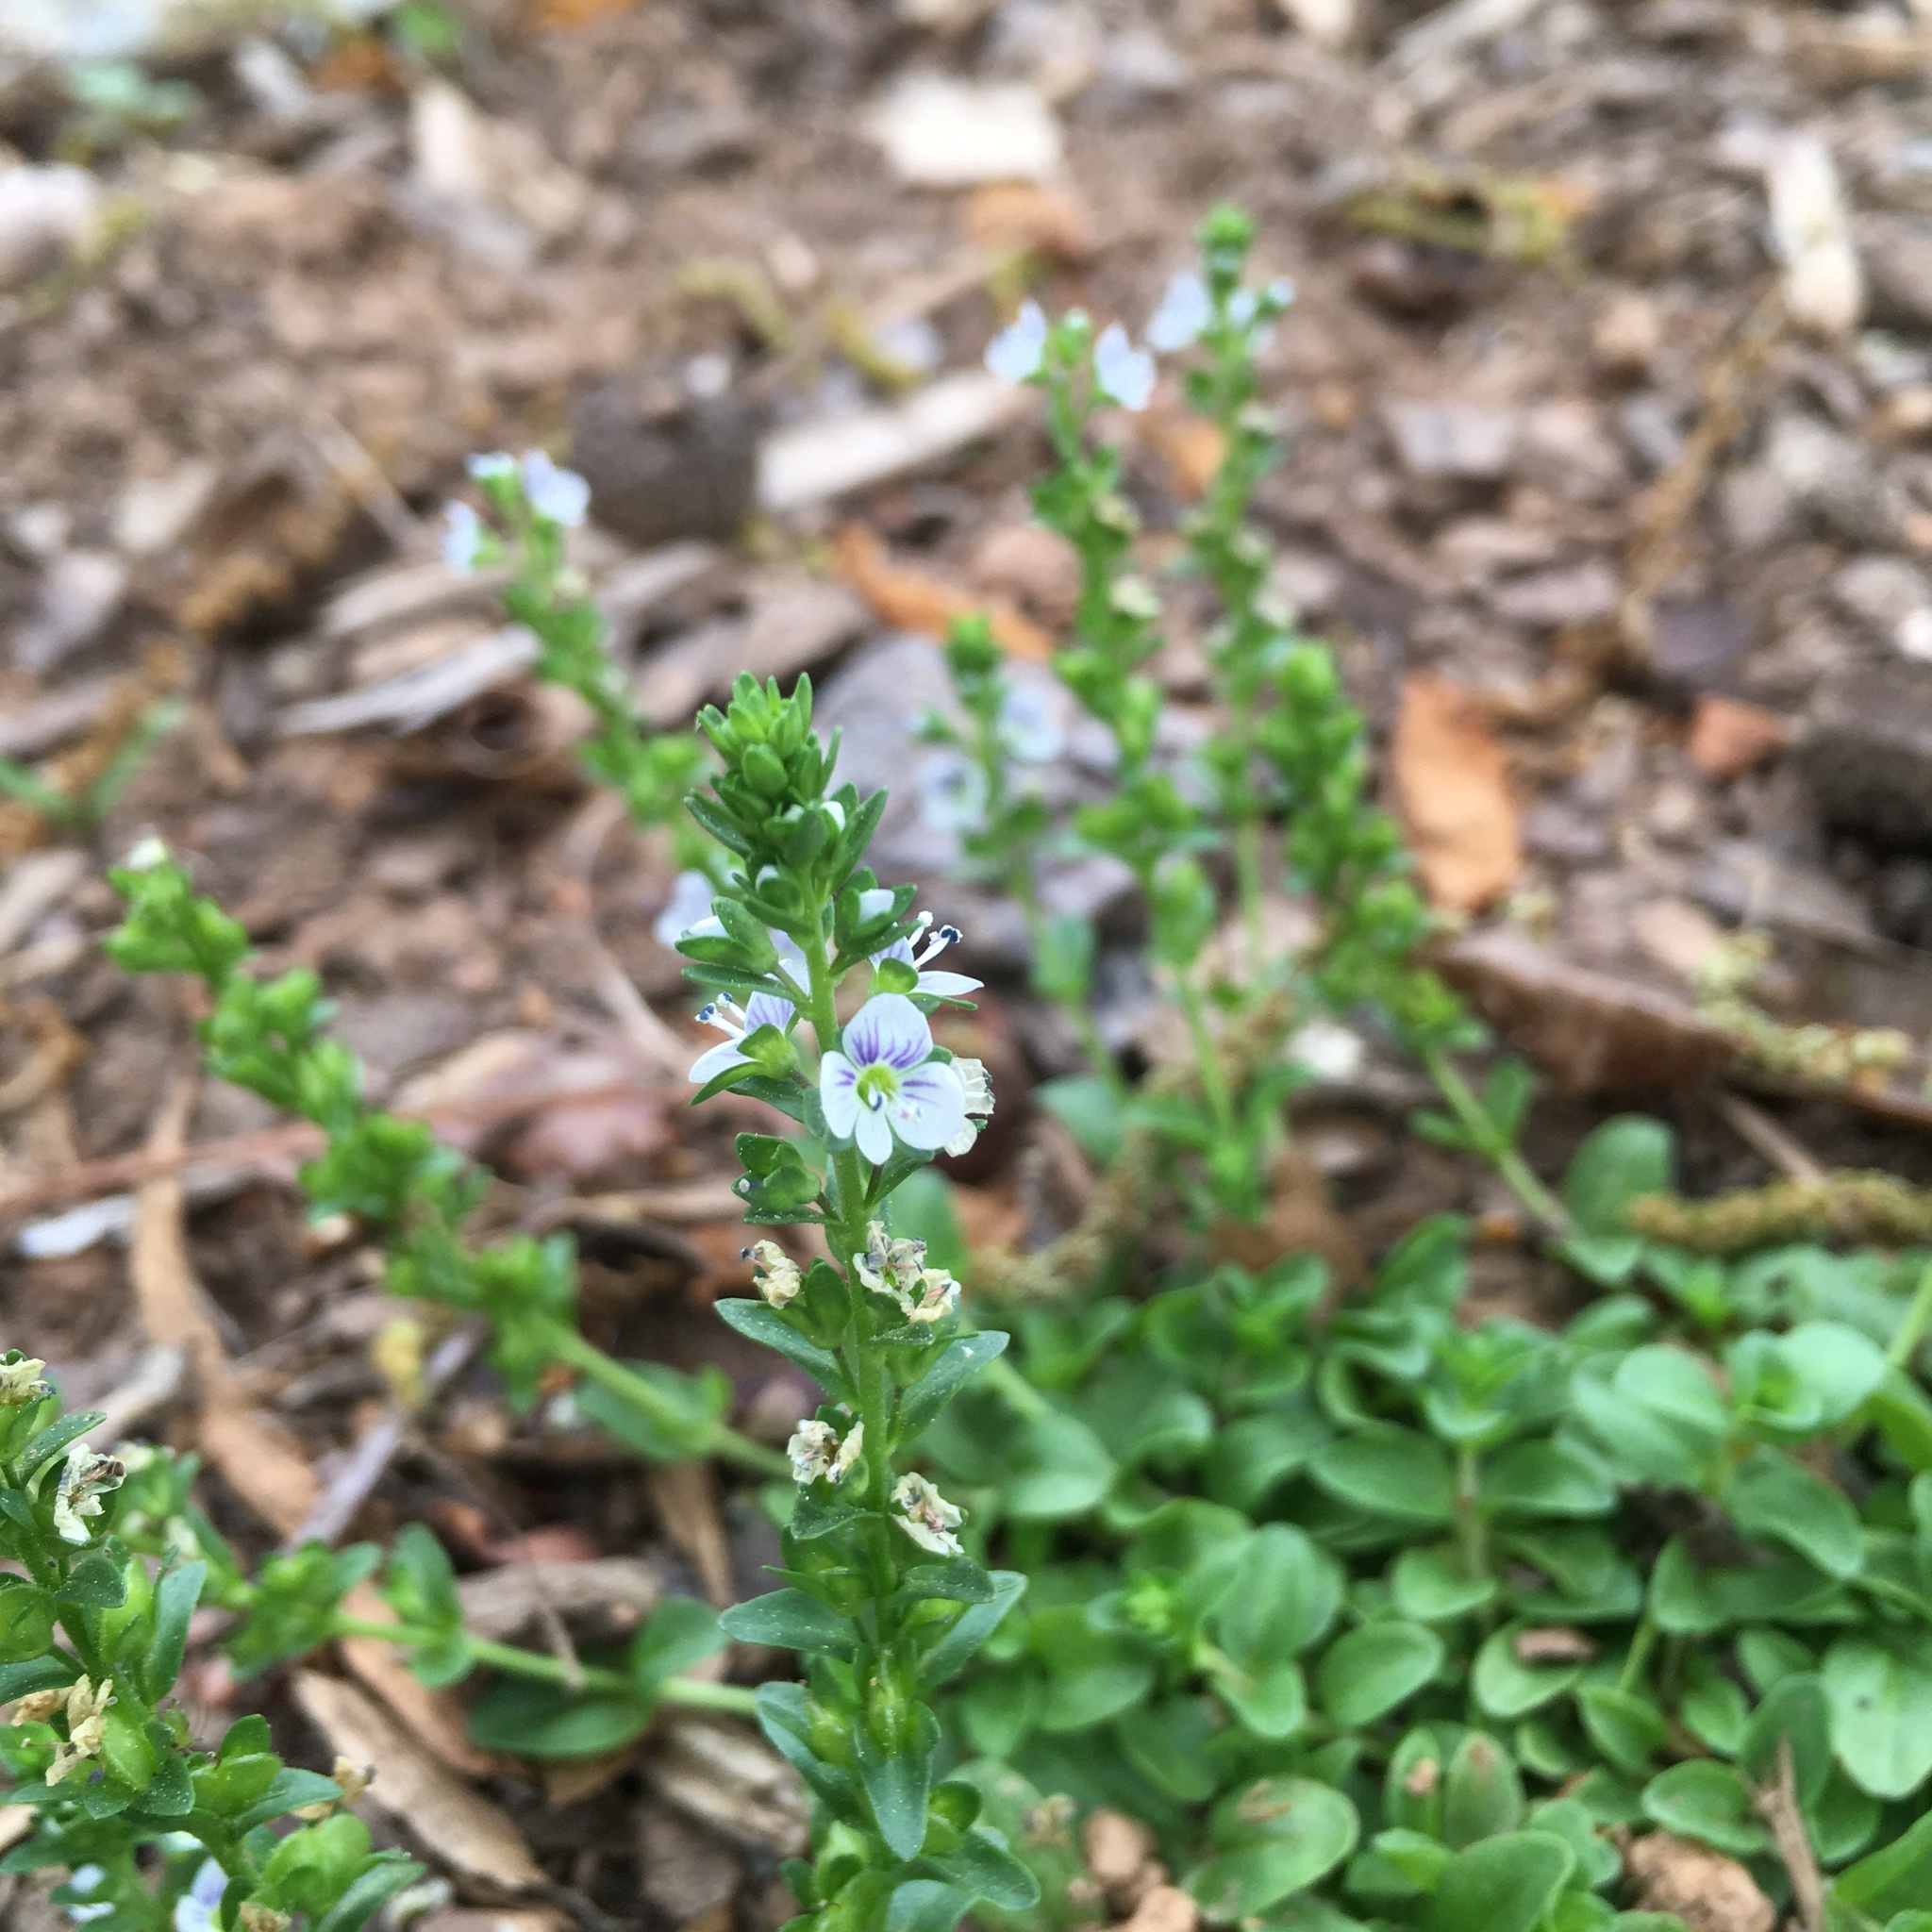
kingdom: Plantae
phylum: Tracheophyta
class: Magnoliopsida
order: Lamiales
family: Plantaginaceae
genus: Veronica
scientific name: Veronica serpyllifolia
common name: Thyme-leaved speedwell
